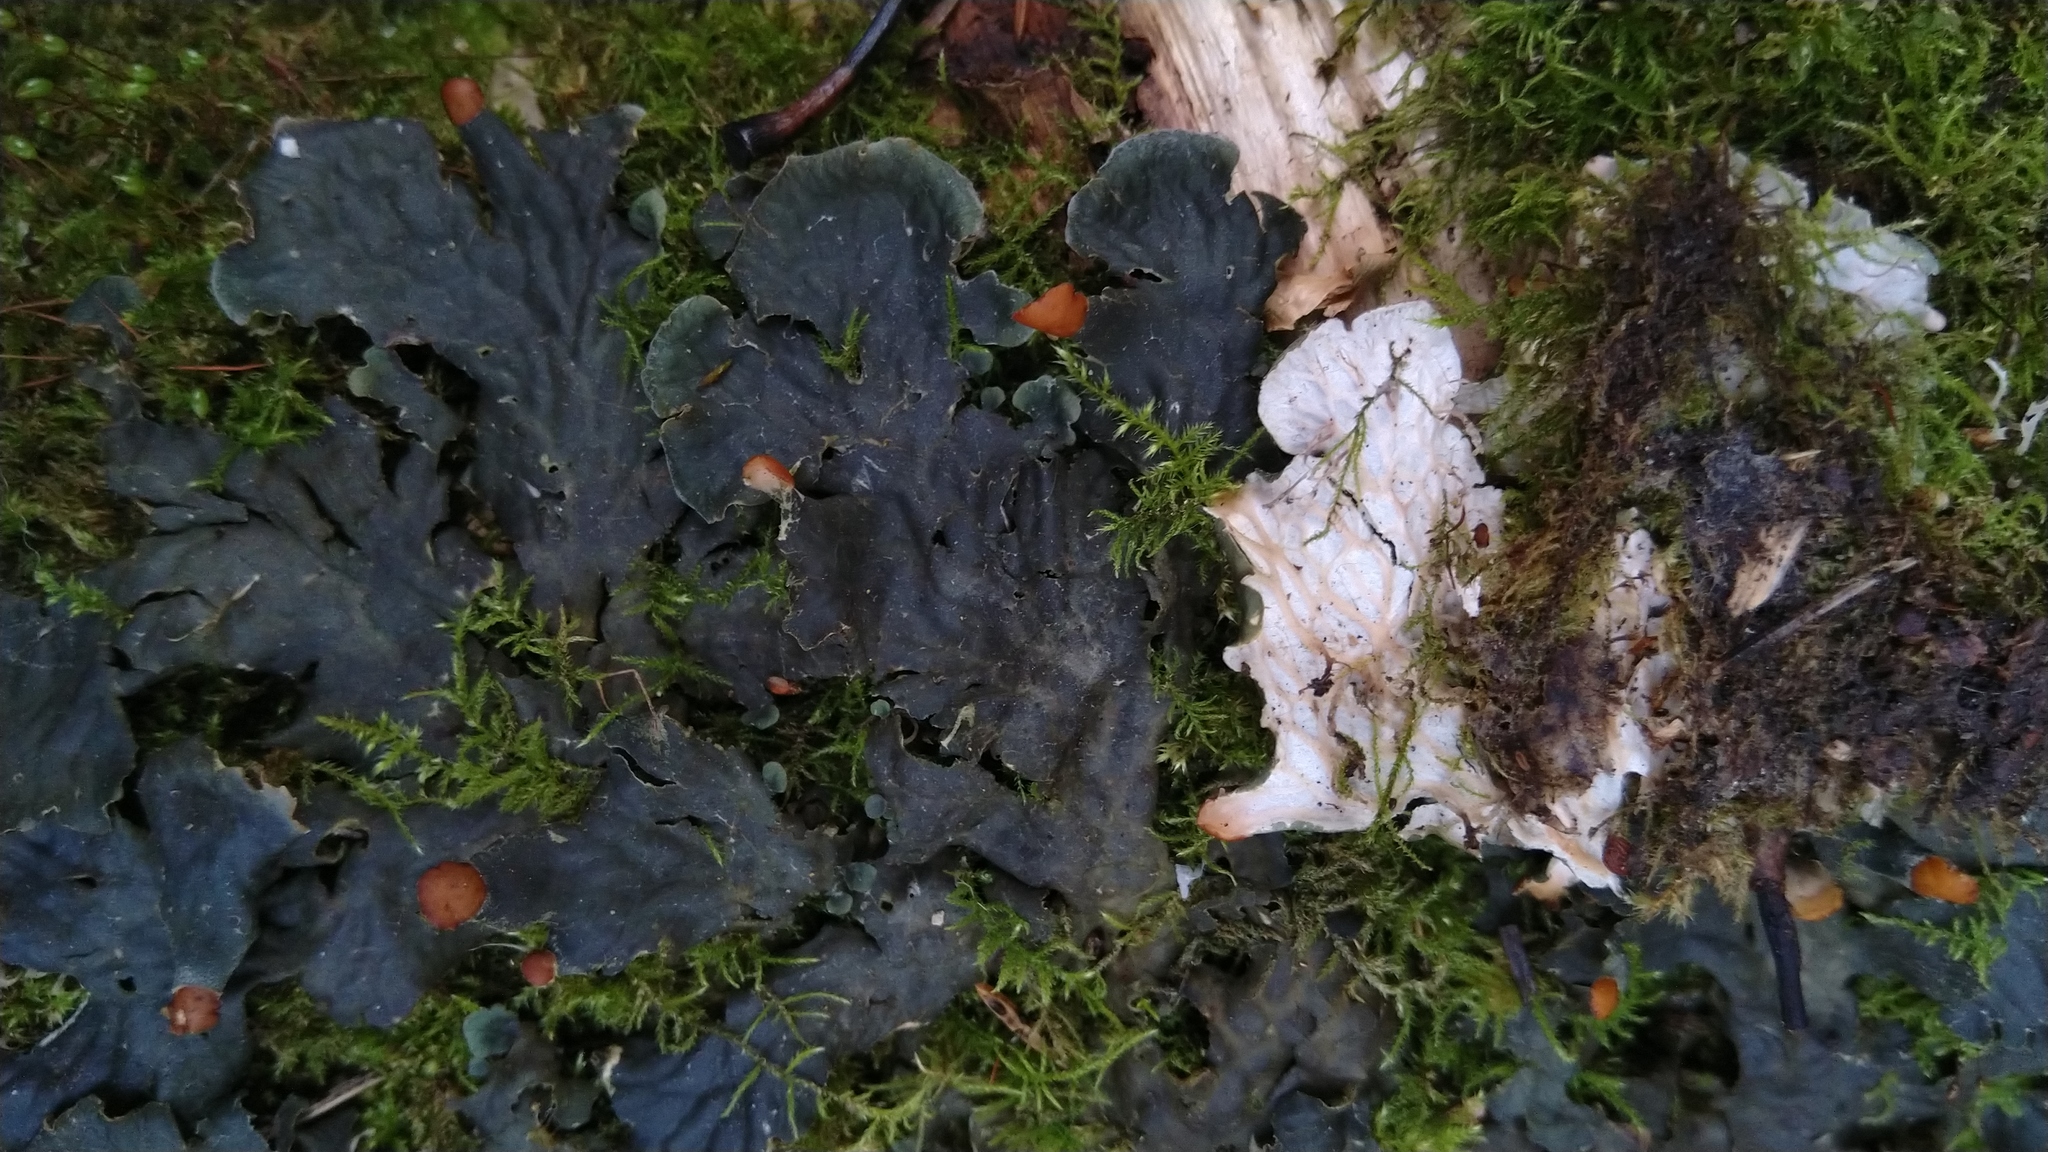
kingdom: Fungi
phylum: Ascomycota
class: Lecanoromycetes
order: Peltigerales
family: Peltigeraceae
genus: Peltigera
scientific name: Peltigera praetextata
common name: Scaly dog-lichen
